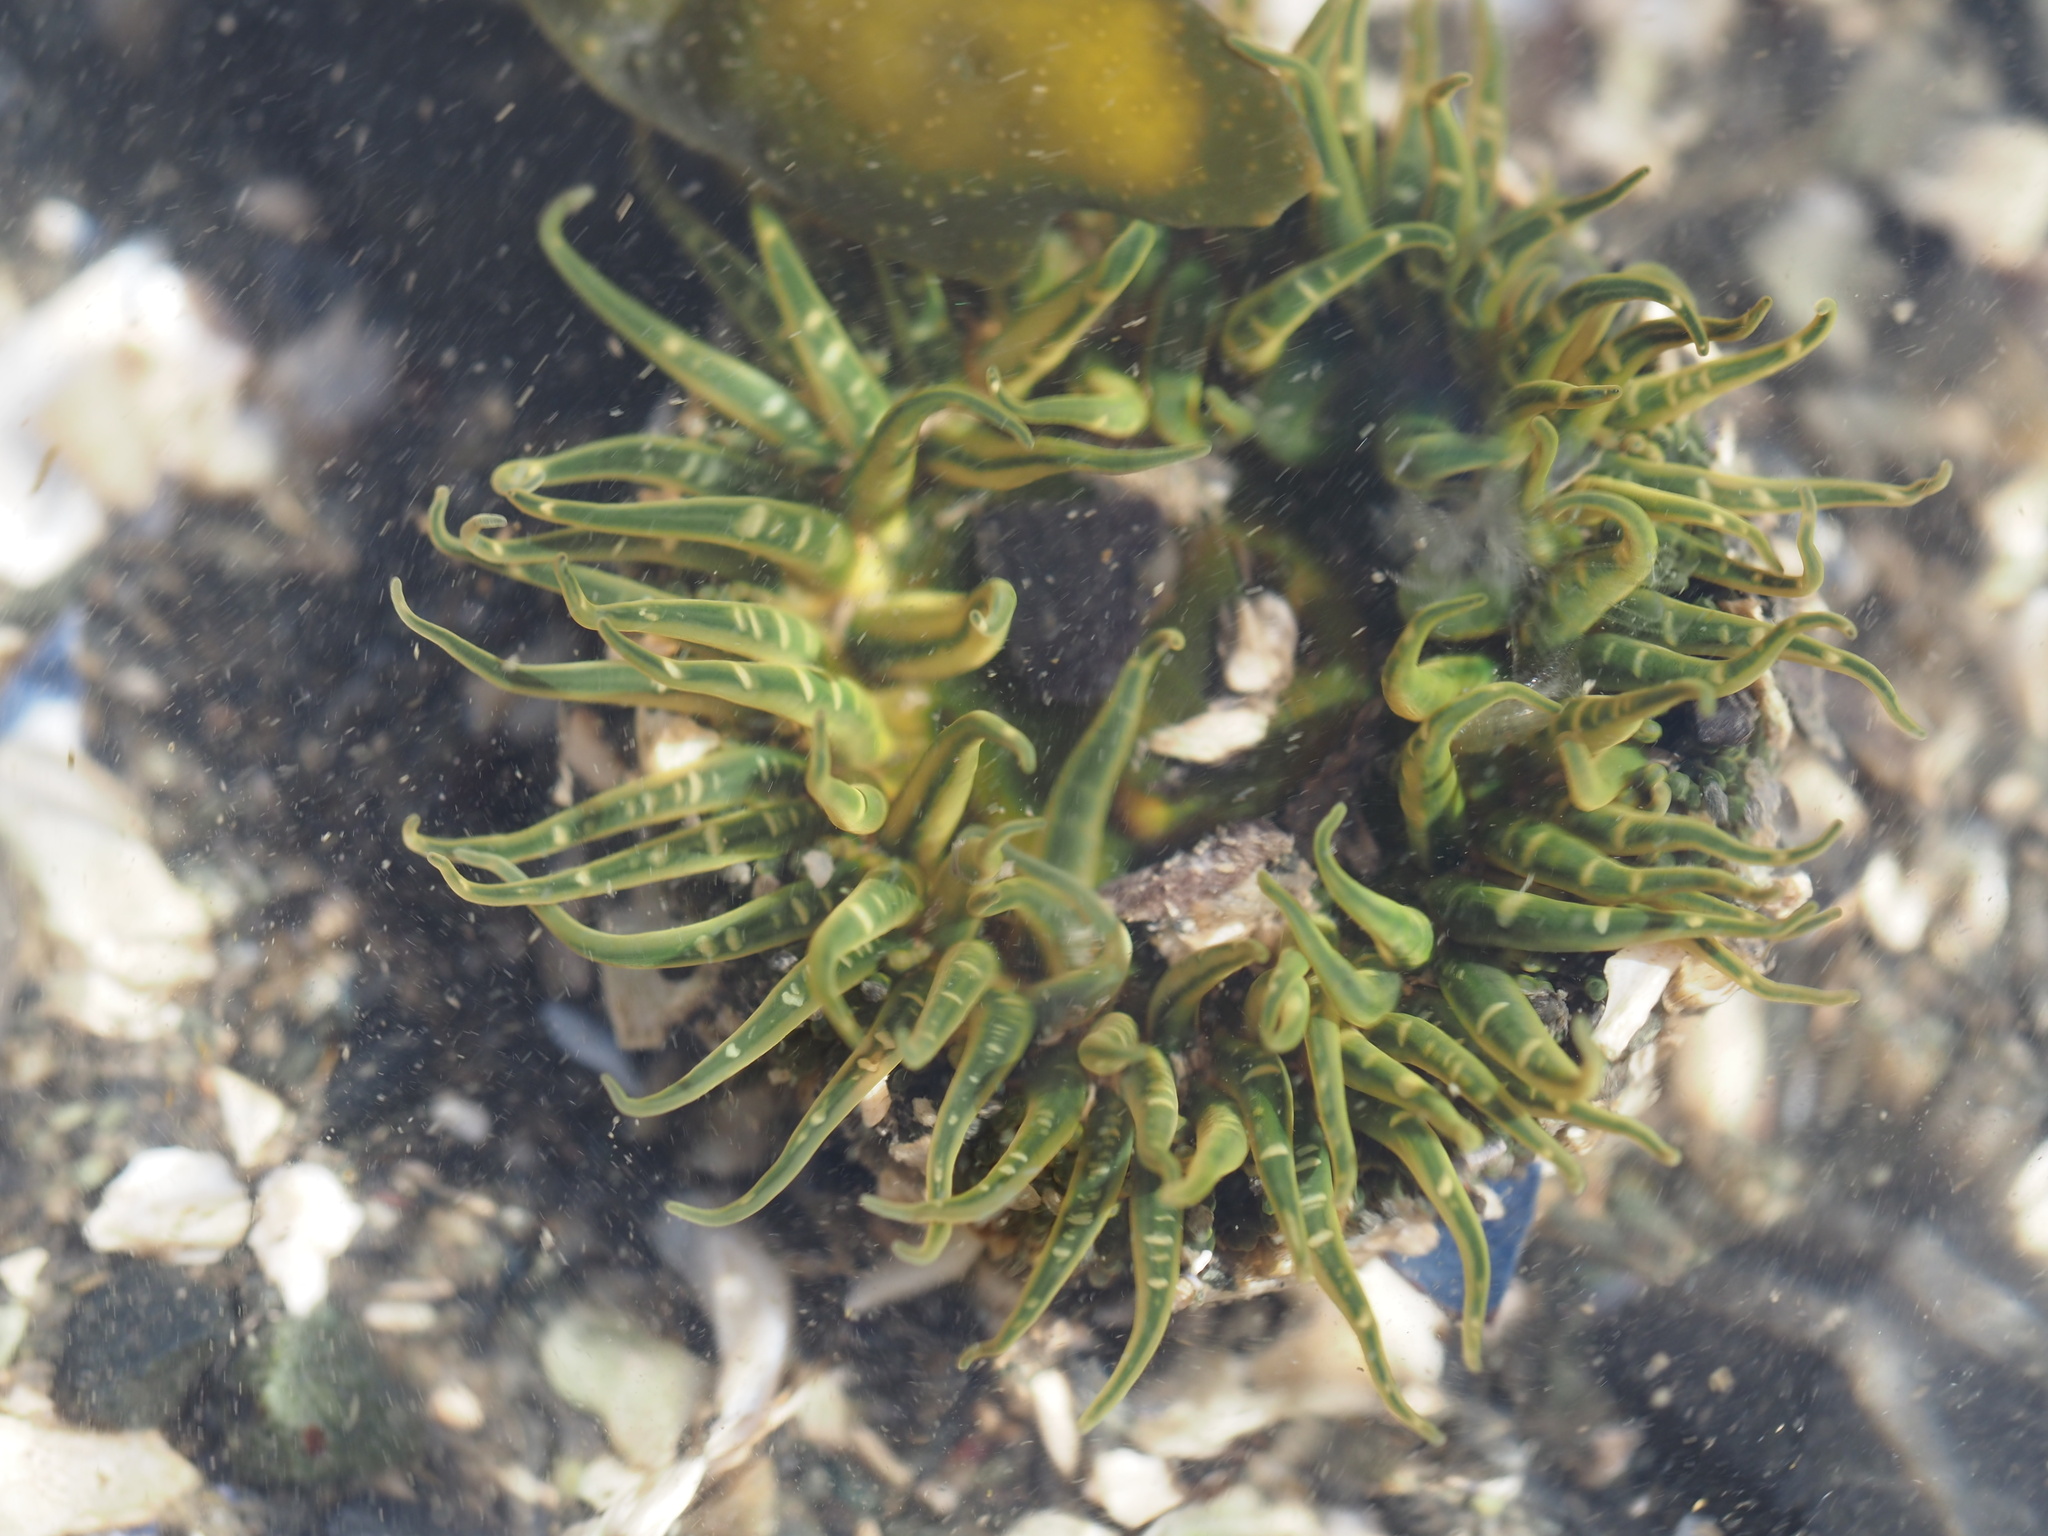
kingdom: Animalia
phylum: Cnidaria
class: Anthozoa
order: Actiniaria
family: Actiniidae
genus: Anthopleura
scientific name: Anthopleura artemisia
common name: Buried sea anemone
